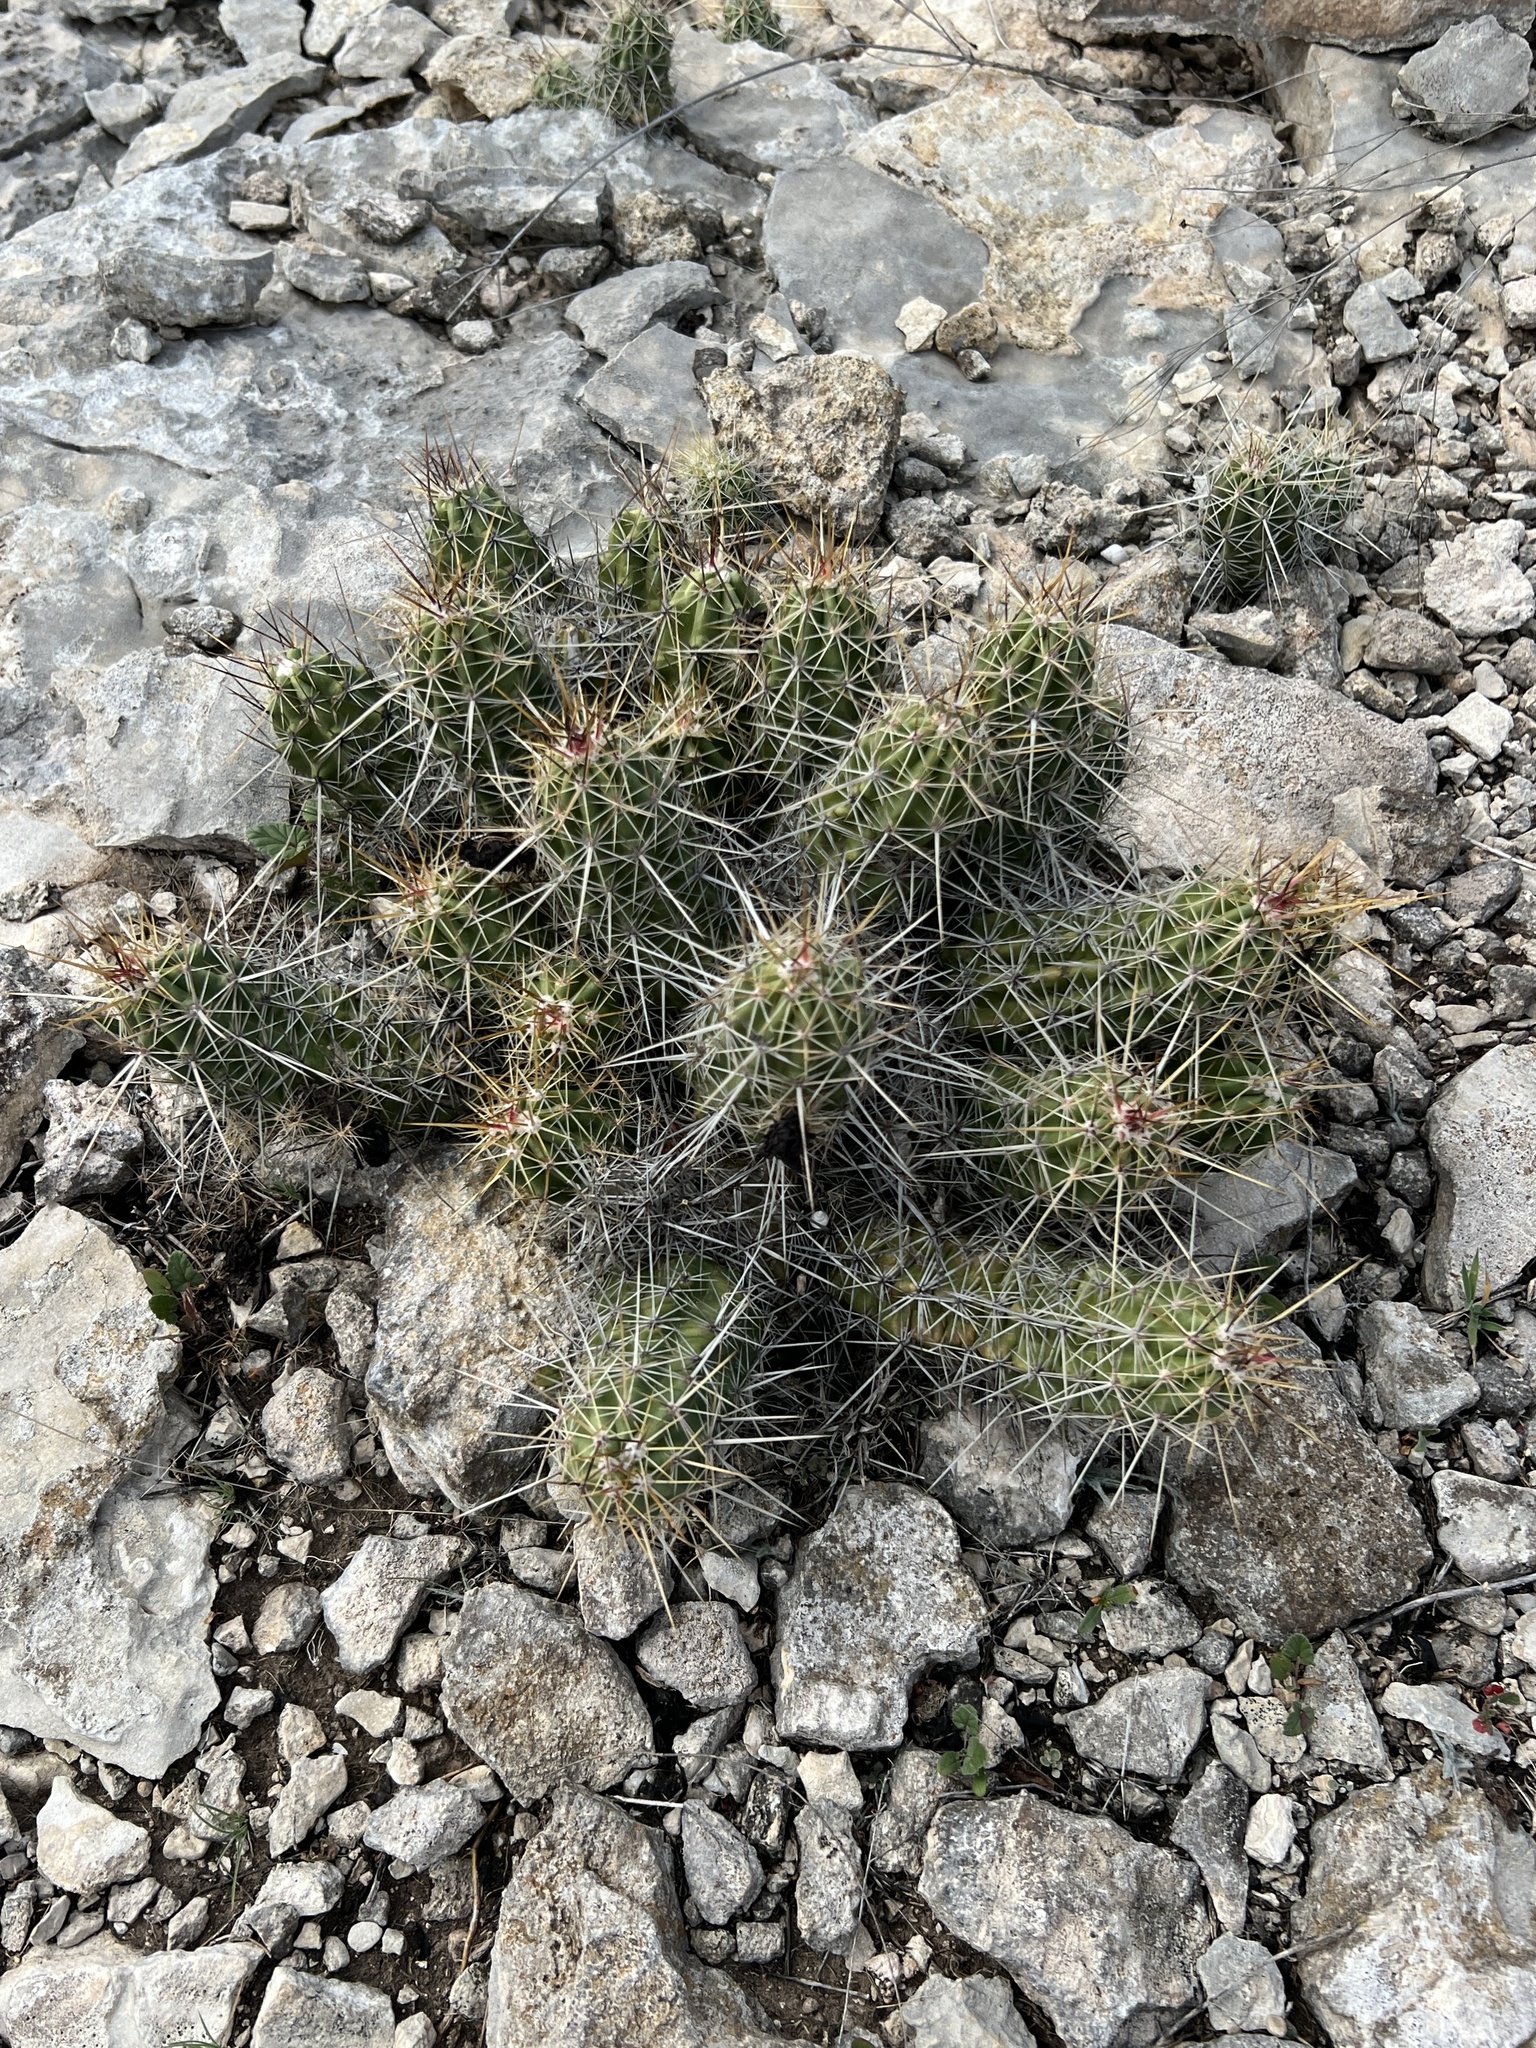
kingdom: Plantae
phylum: Tracheophyta
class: Magnoliopsida
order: Caryophyllales
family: Cactaceae
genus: Echinocereus
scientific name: Echinocereus enneacanthus
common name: Pitaya
